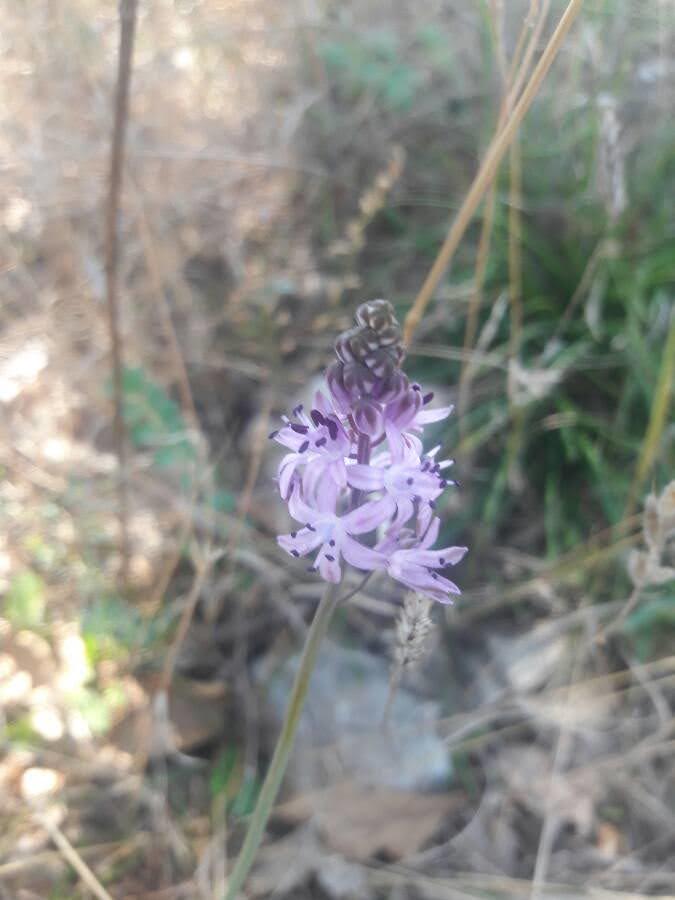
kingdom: Plantae
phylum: Tracheophyta
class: Liliopsida
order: Asparagales
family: Asparagaceae
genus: Prospero
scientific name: Prospero autumnale
